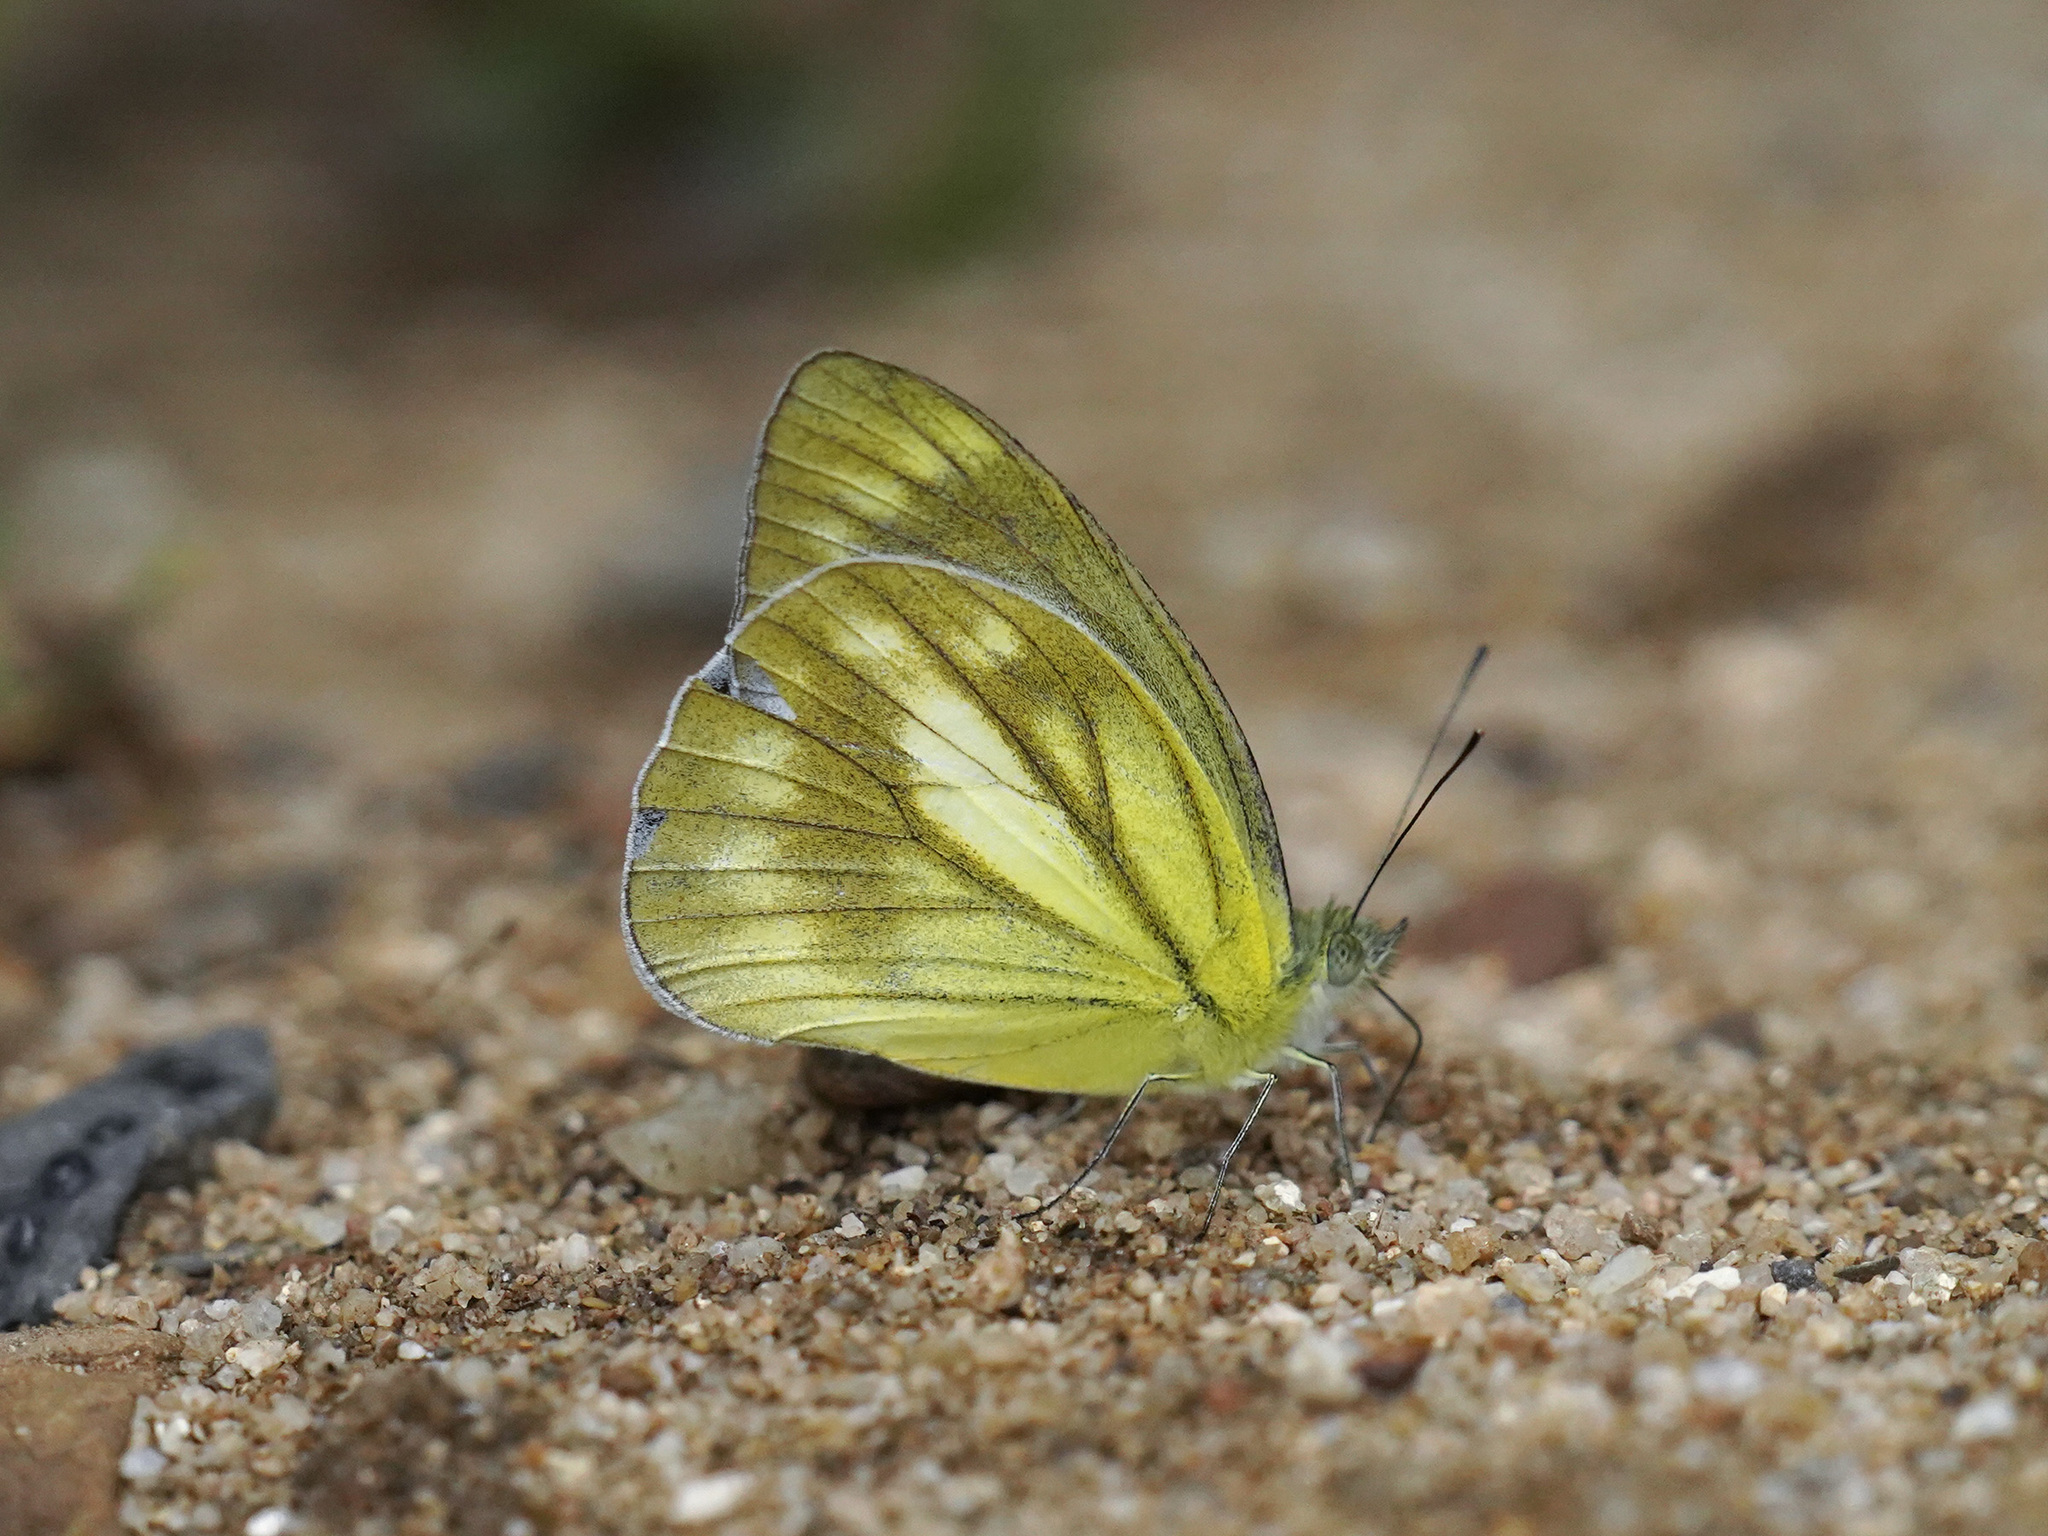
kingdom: Animalia
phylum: Arthropoda
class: Insecta
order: Lepidoptera
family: Pieridae
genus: Cepora
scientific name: Cepora nadina
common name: Lesser gull
